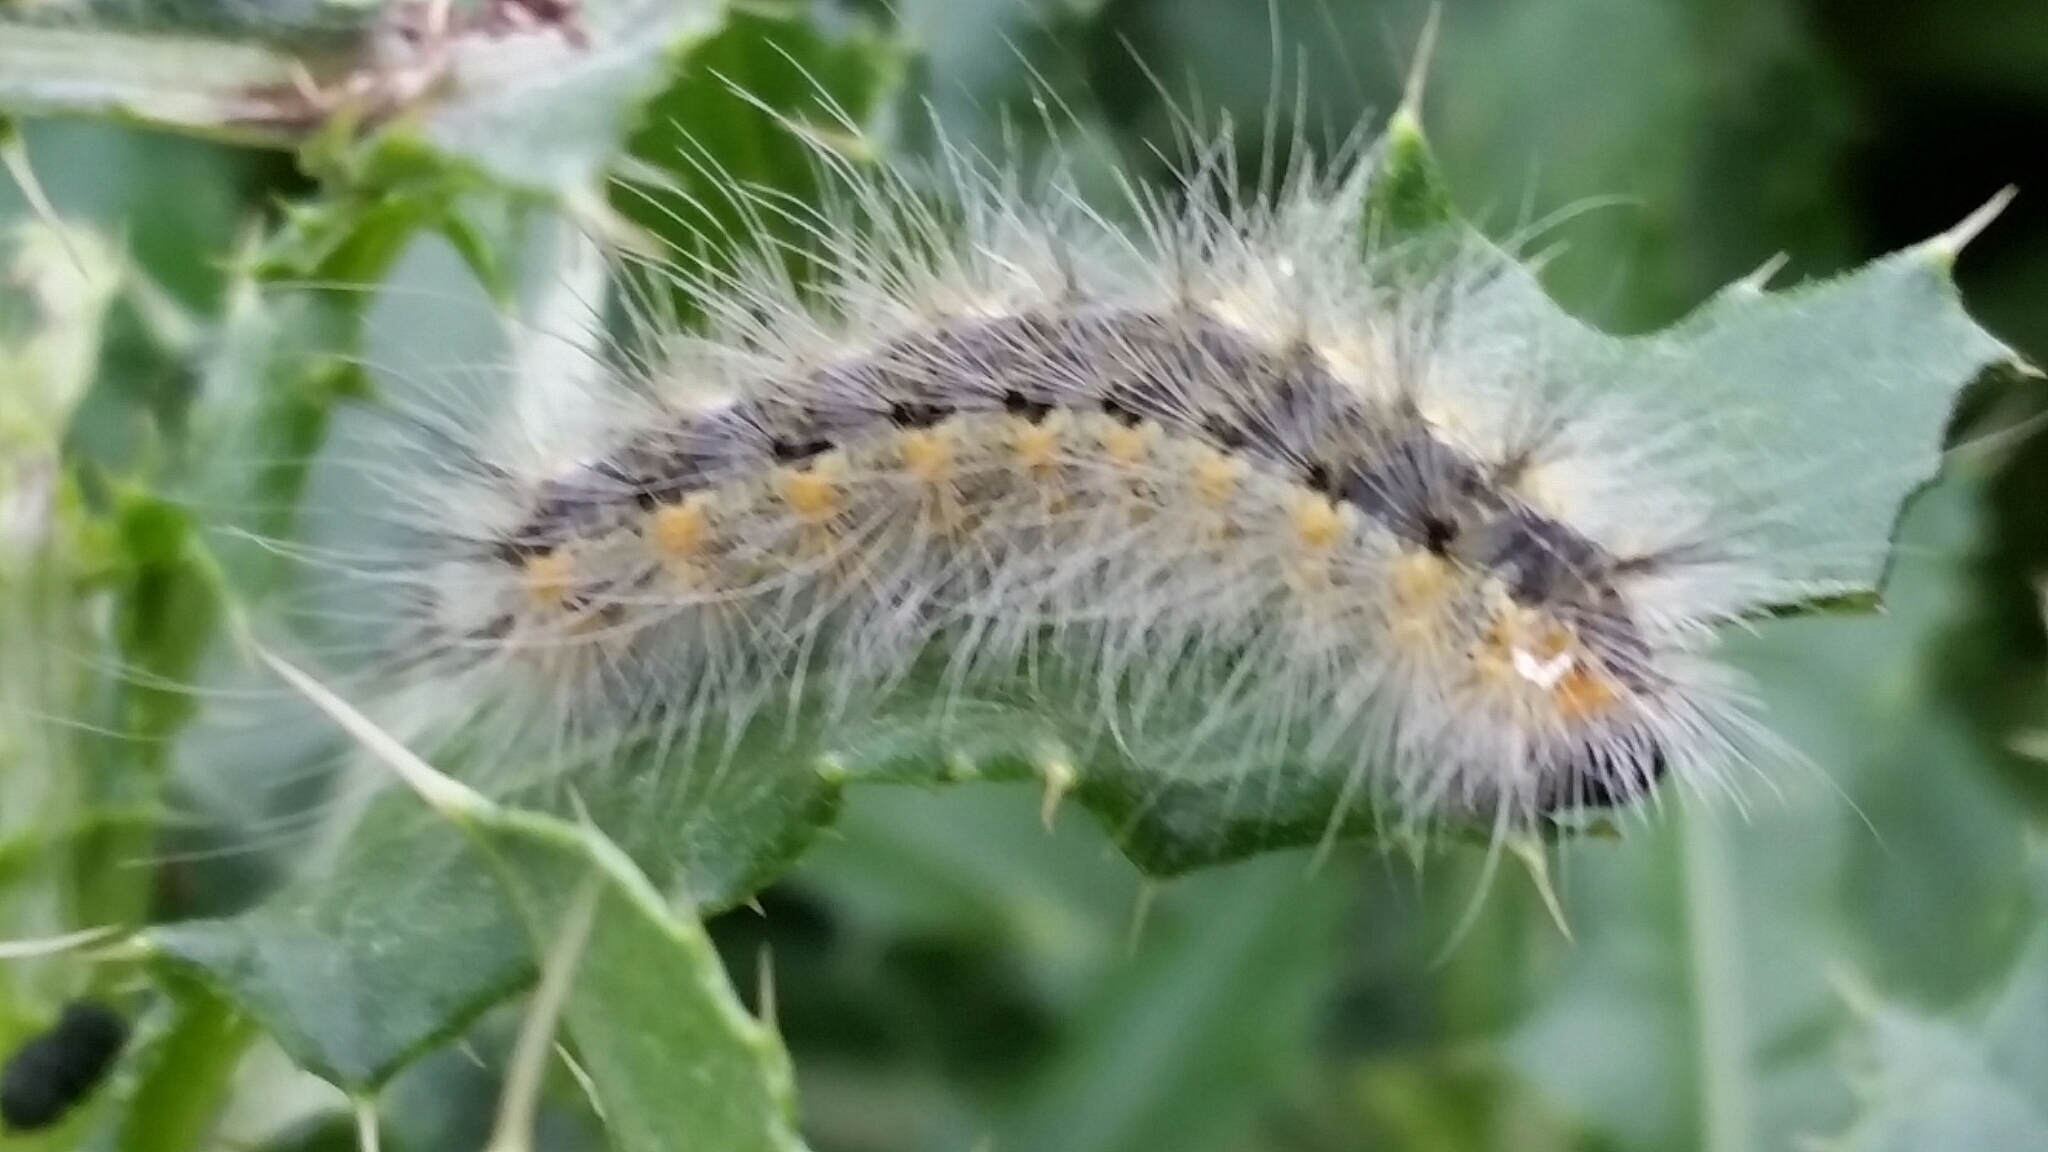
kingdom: Animalia
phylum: Arthropoda
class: Insecta
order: Lepidoptera
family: Erebidae
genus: Hyphantria
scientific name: Hyphantria cunea
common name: American white moth
